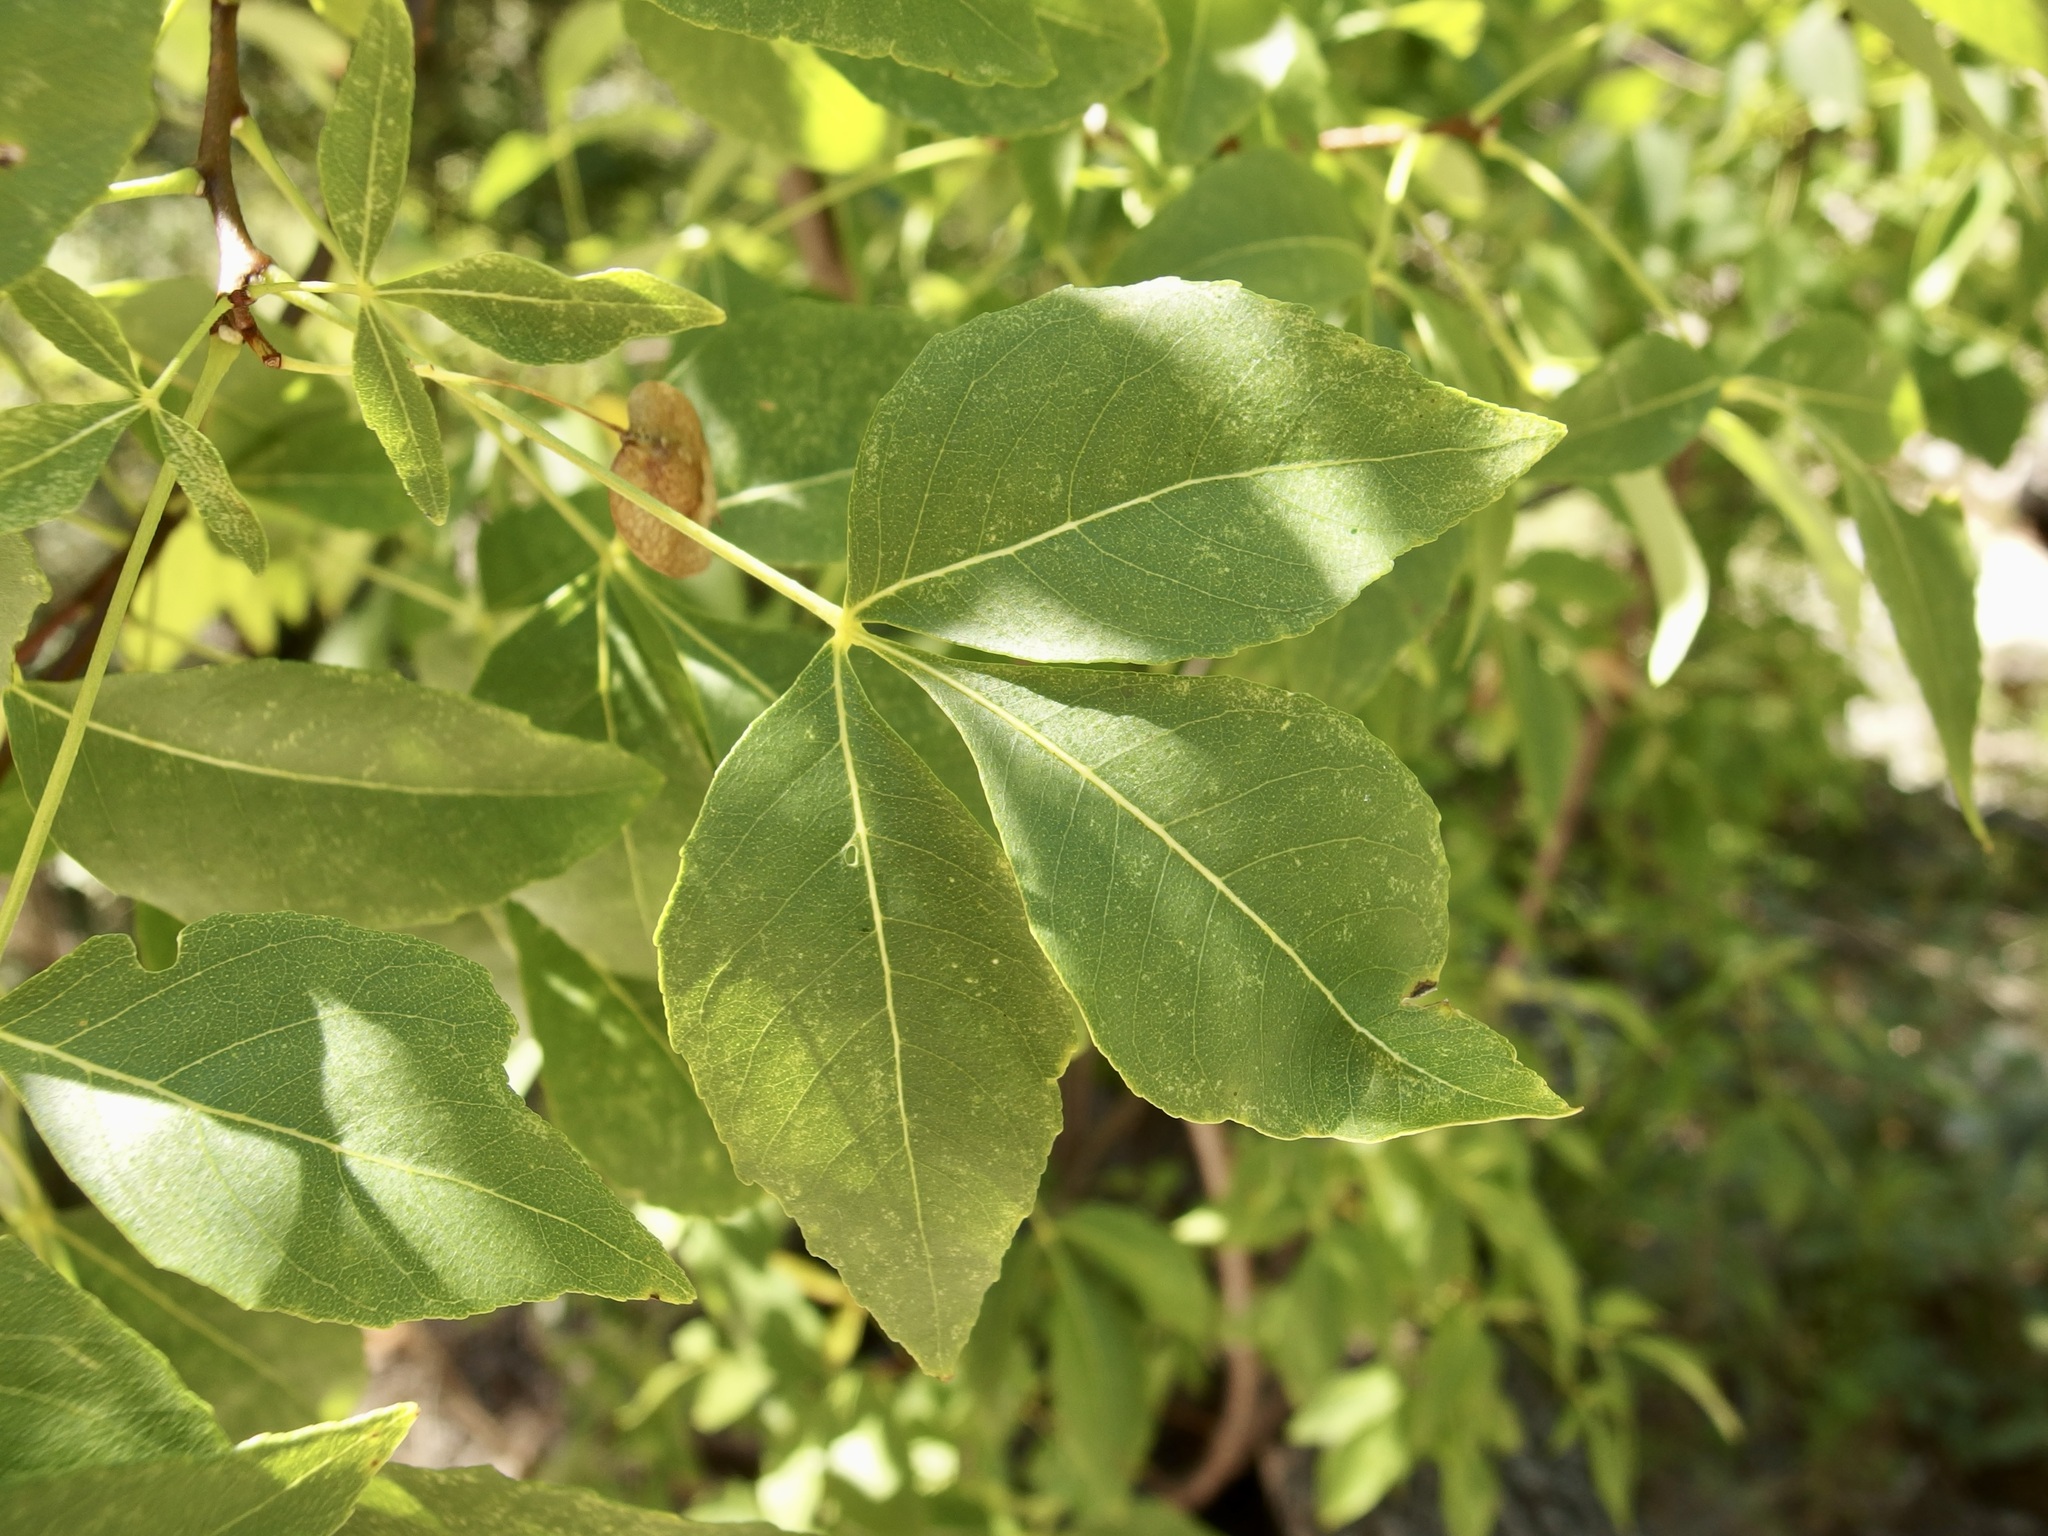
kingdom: Plantae
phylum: Tracheophyta
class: Magnoliopsida
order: Sapindales
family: Rutaceae
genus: Ptelea
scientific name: Ptelea trifoliata
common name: Common hop-tree
